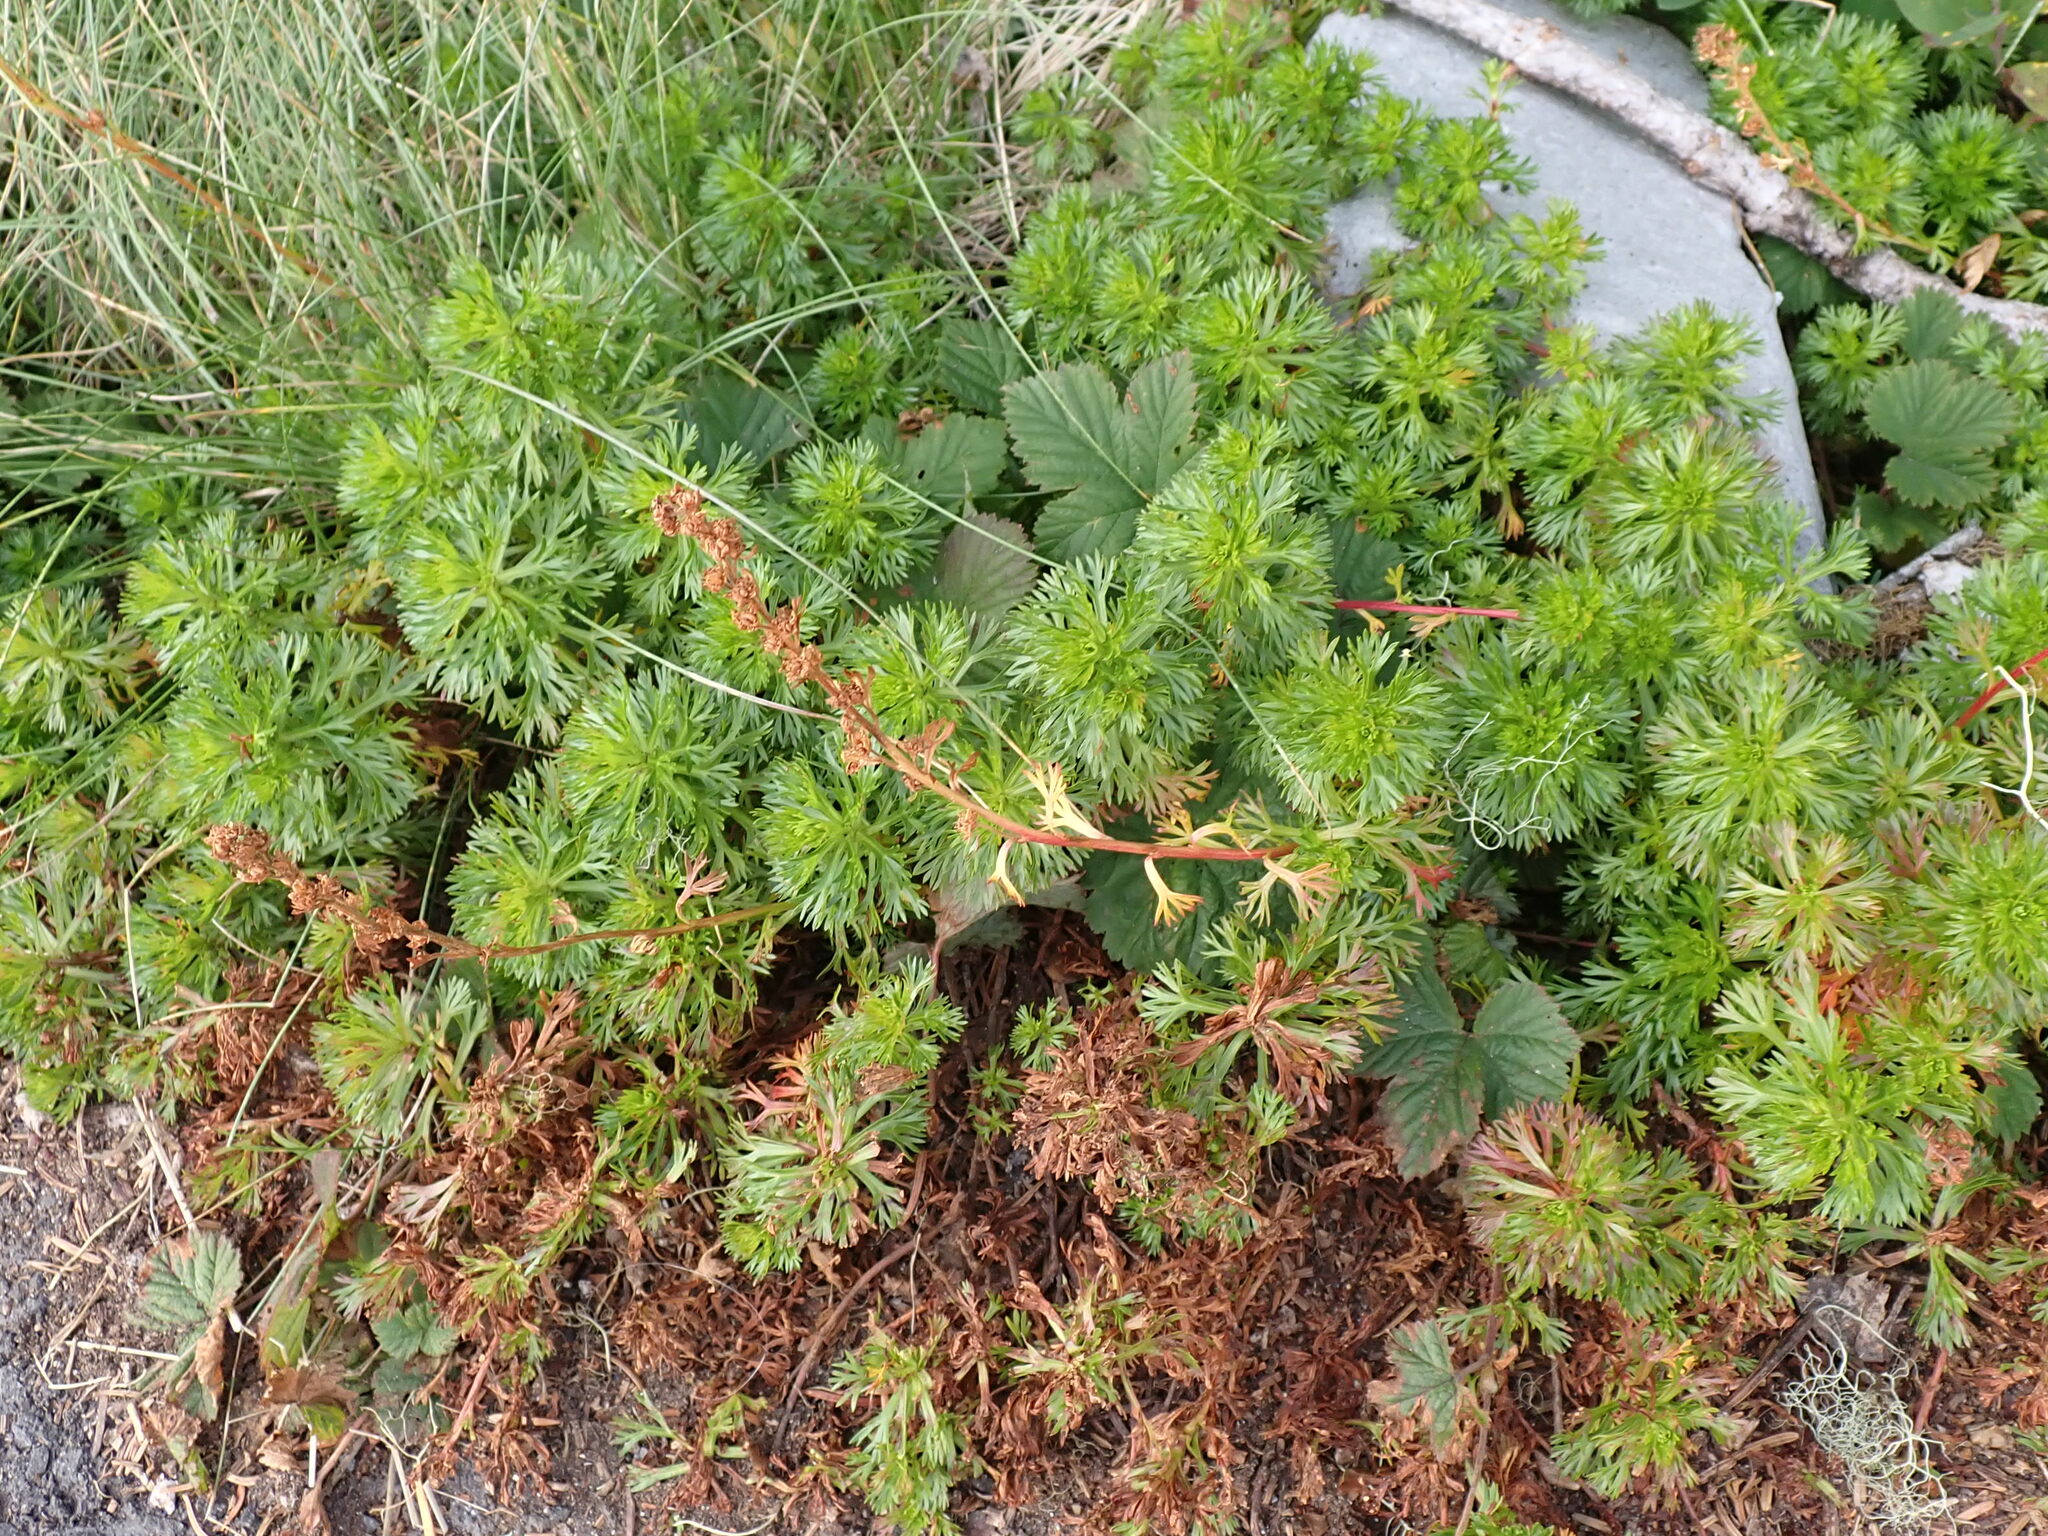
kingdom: Plantae
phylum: Tracheophyta
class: Magnoliopsida
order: Rosales
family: Rosaceae
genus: Luetkea
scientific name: Luetkea pectinata
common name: Partridgefoot
